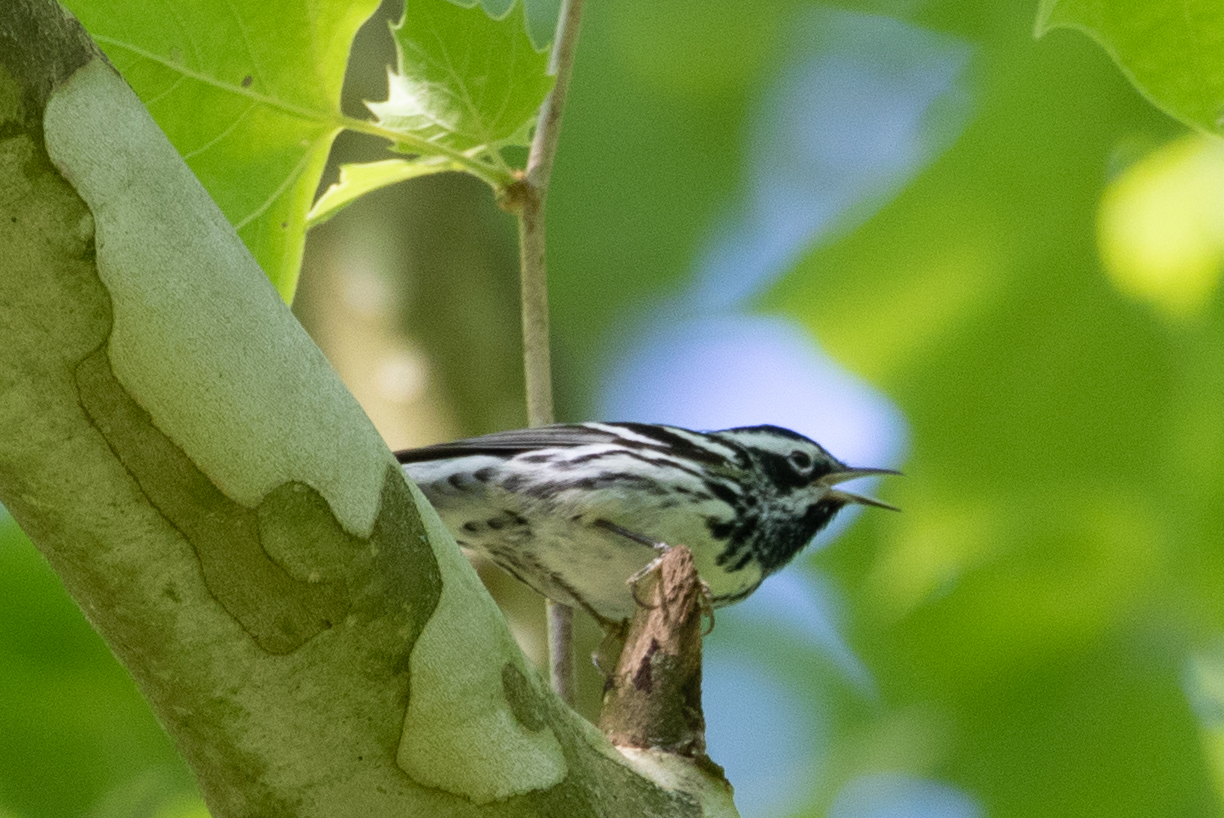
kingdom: Animalia
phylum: Chordata
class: Aves
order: Passeriformes
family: Parulidae
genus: Mniotilta
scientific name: Mniotilta varia
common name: Black-and-white warbler
